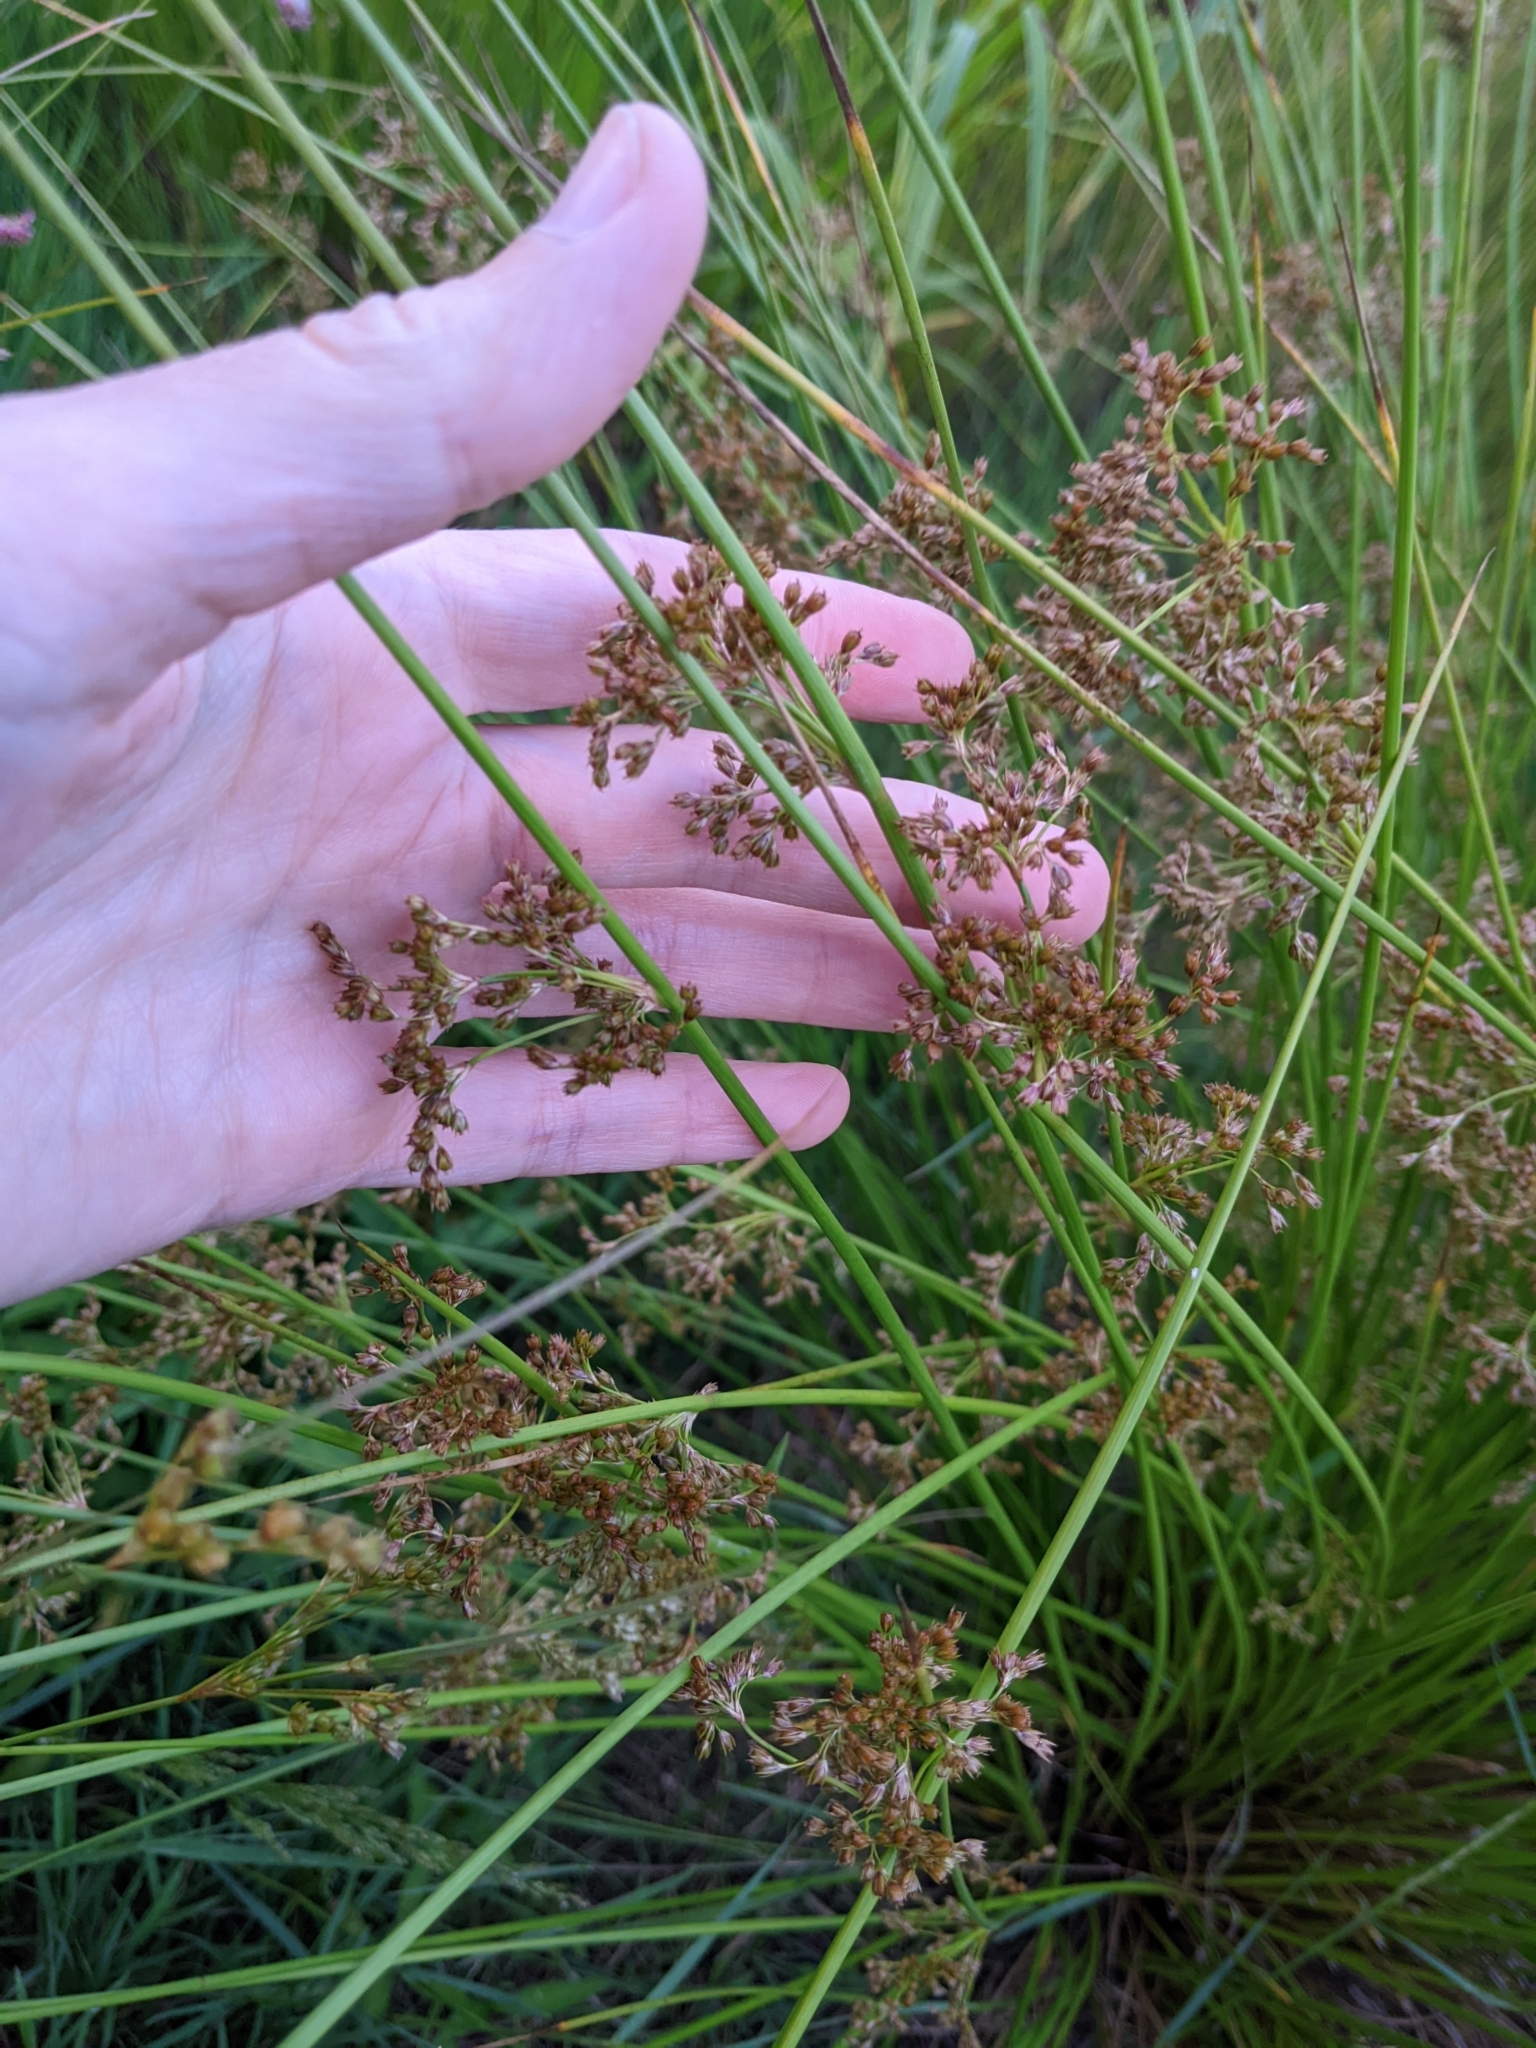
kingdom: Plantae
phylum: Tracheophyta
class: Liliopsida
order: Poales
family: Juncaceae
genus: Juncus
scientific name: Juncus effusus
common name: Soft rush
